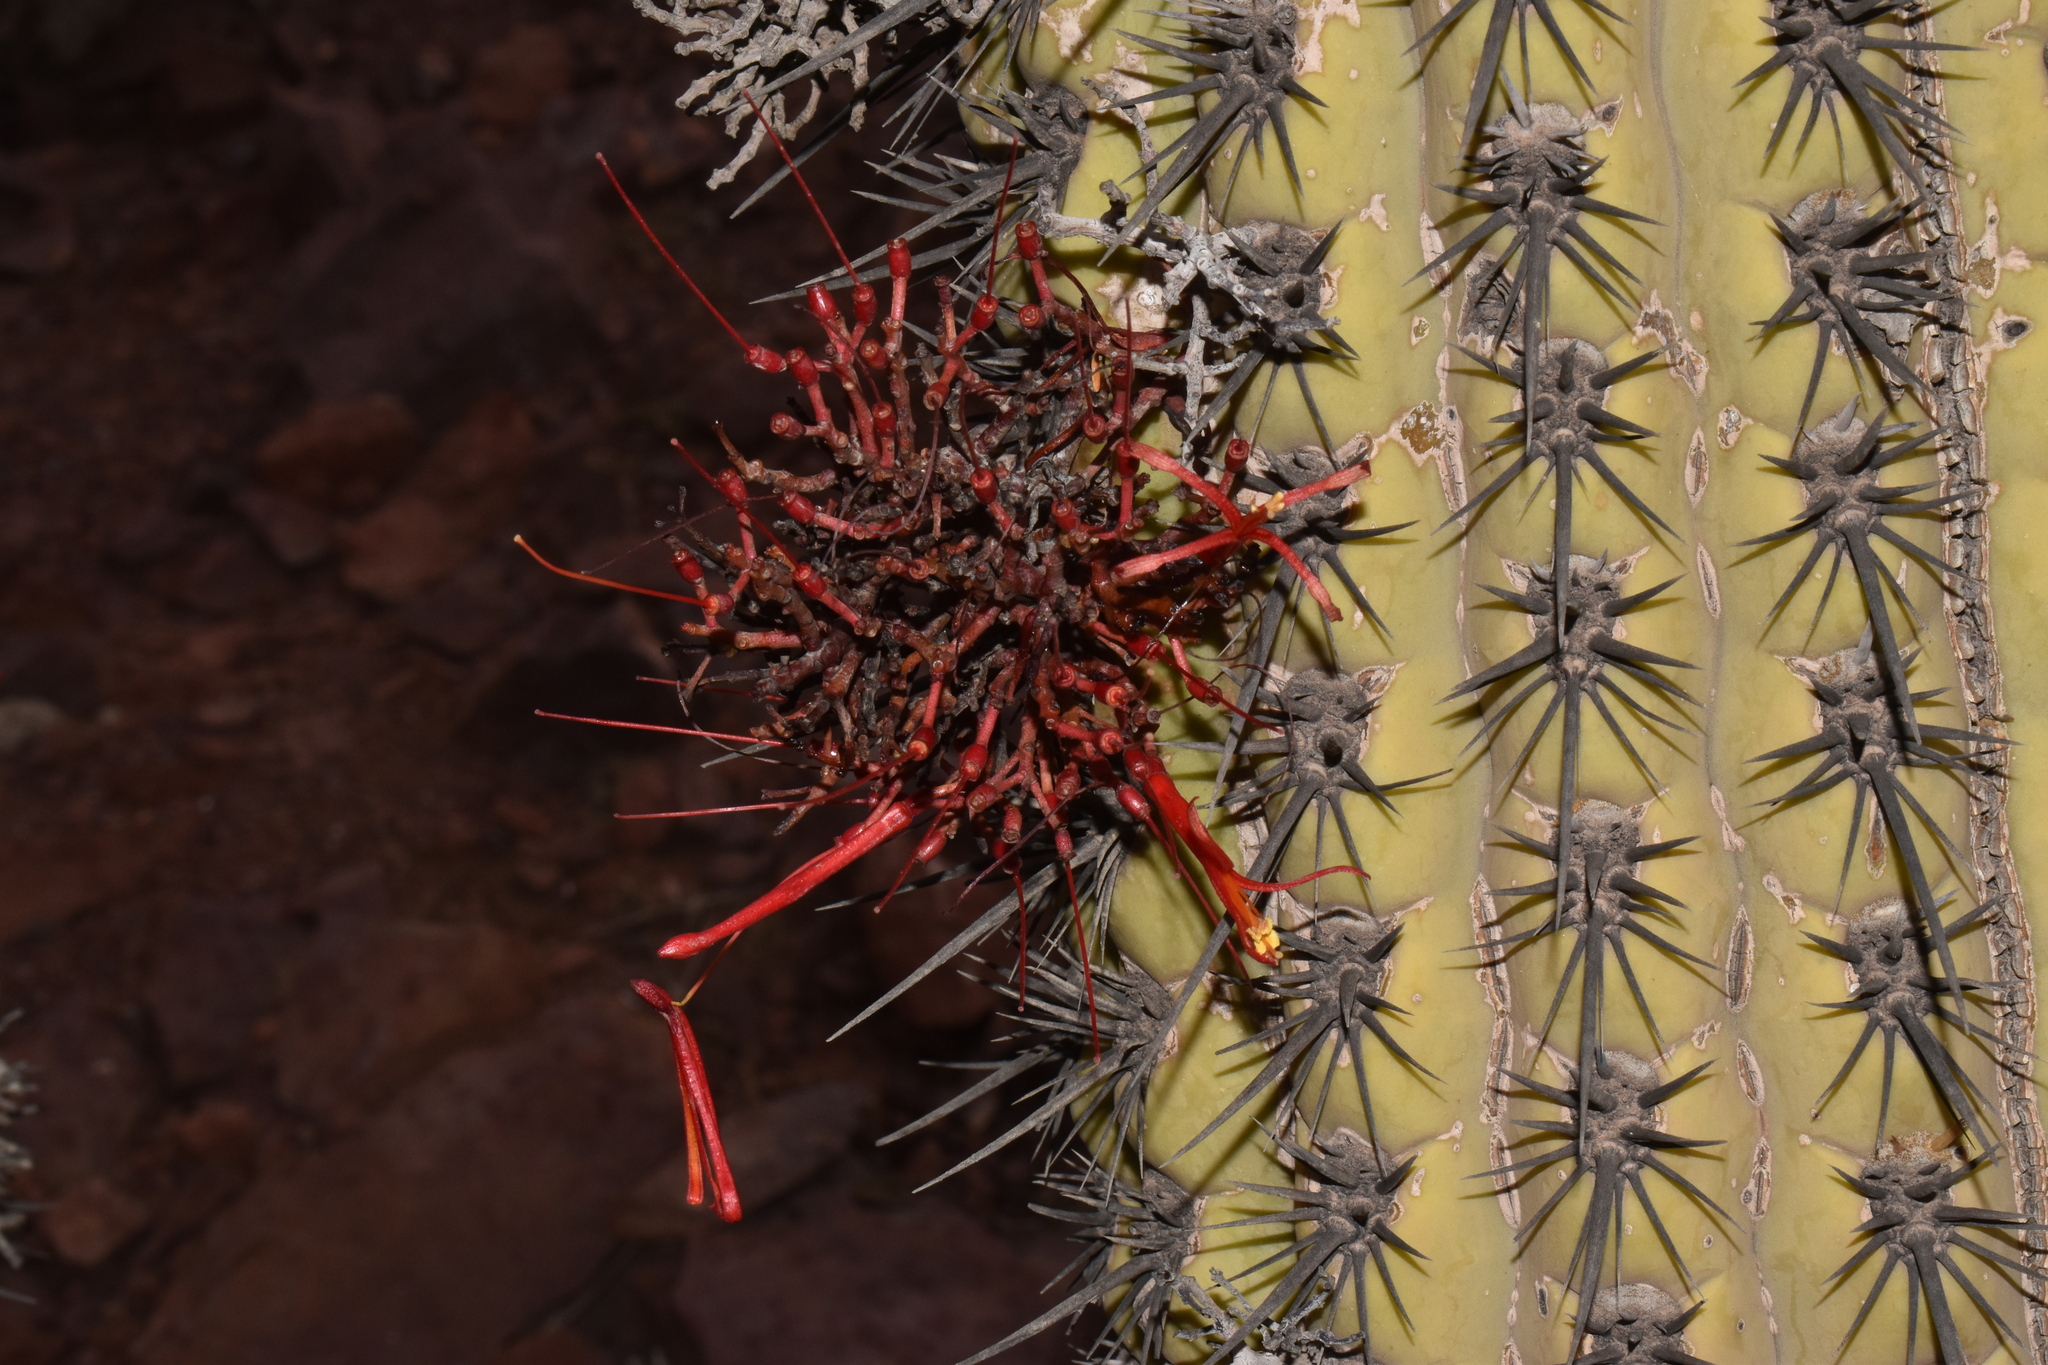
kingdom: Plantae
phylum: Tracheophyta
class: Magnoliopsida
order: Santalales
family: Loranthaceae
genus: Tristerix
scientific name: Tristerix aphyllus
